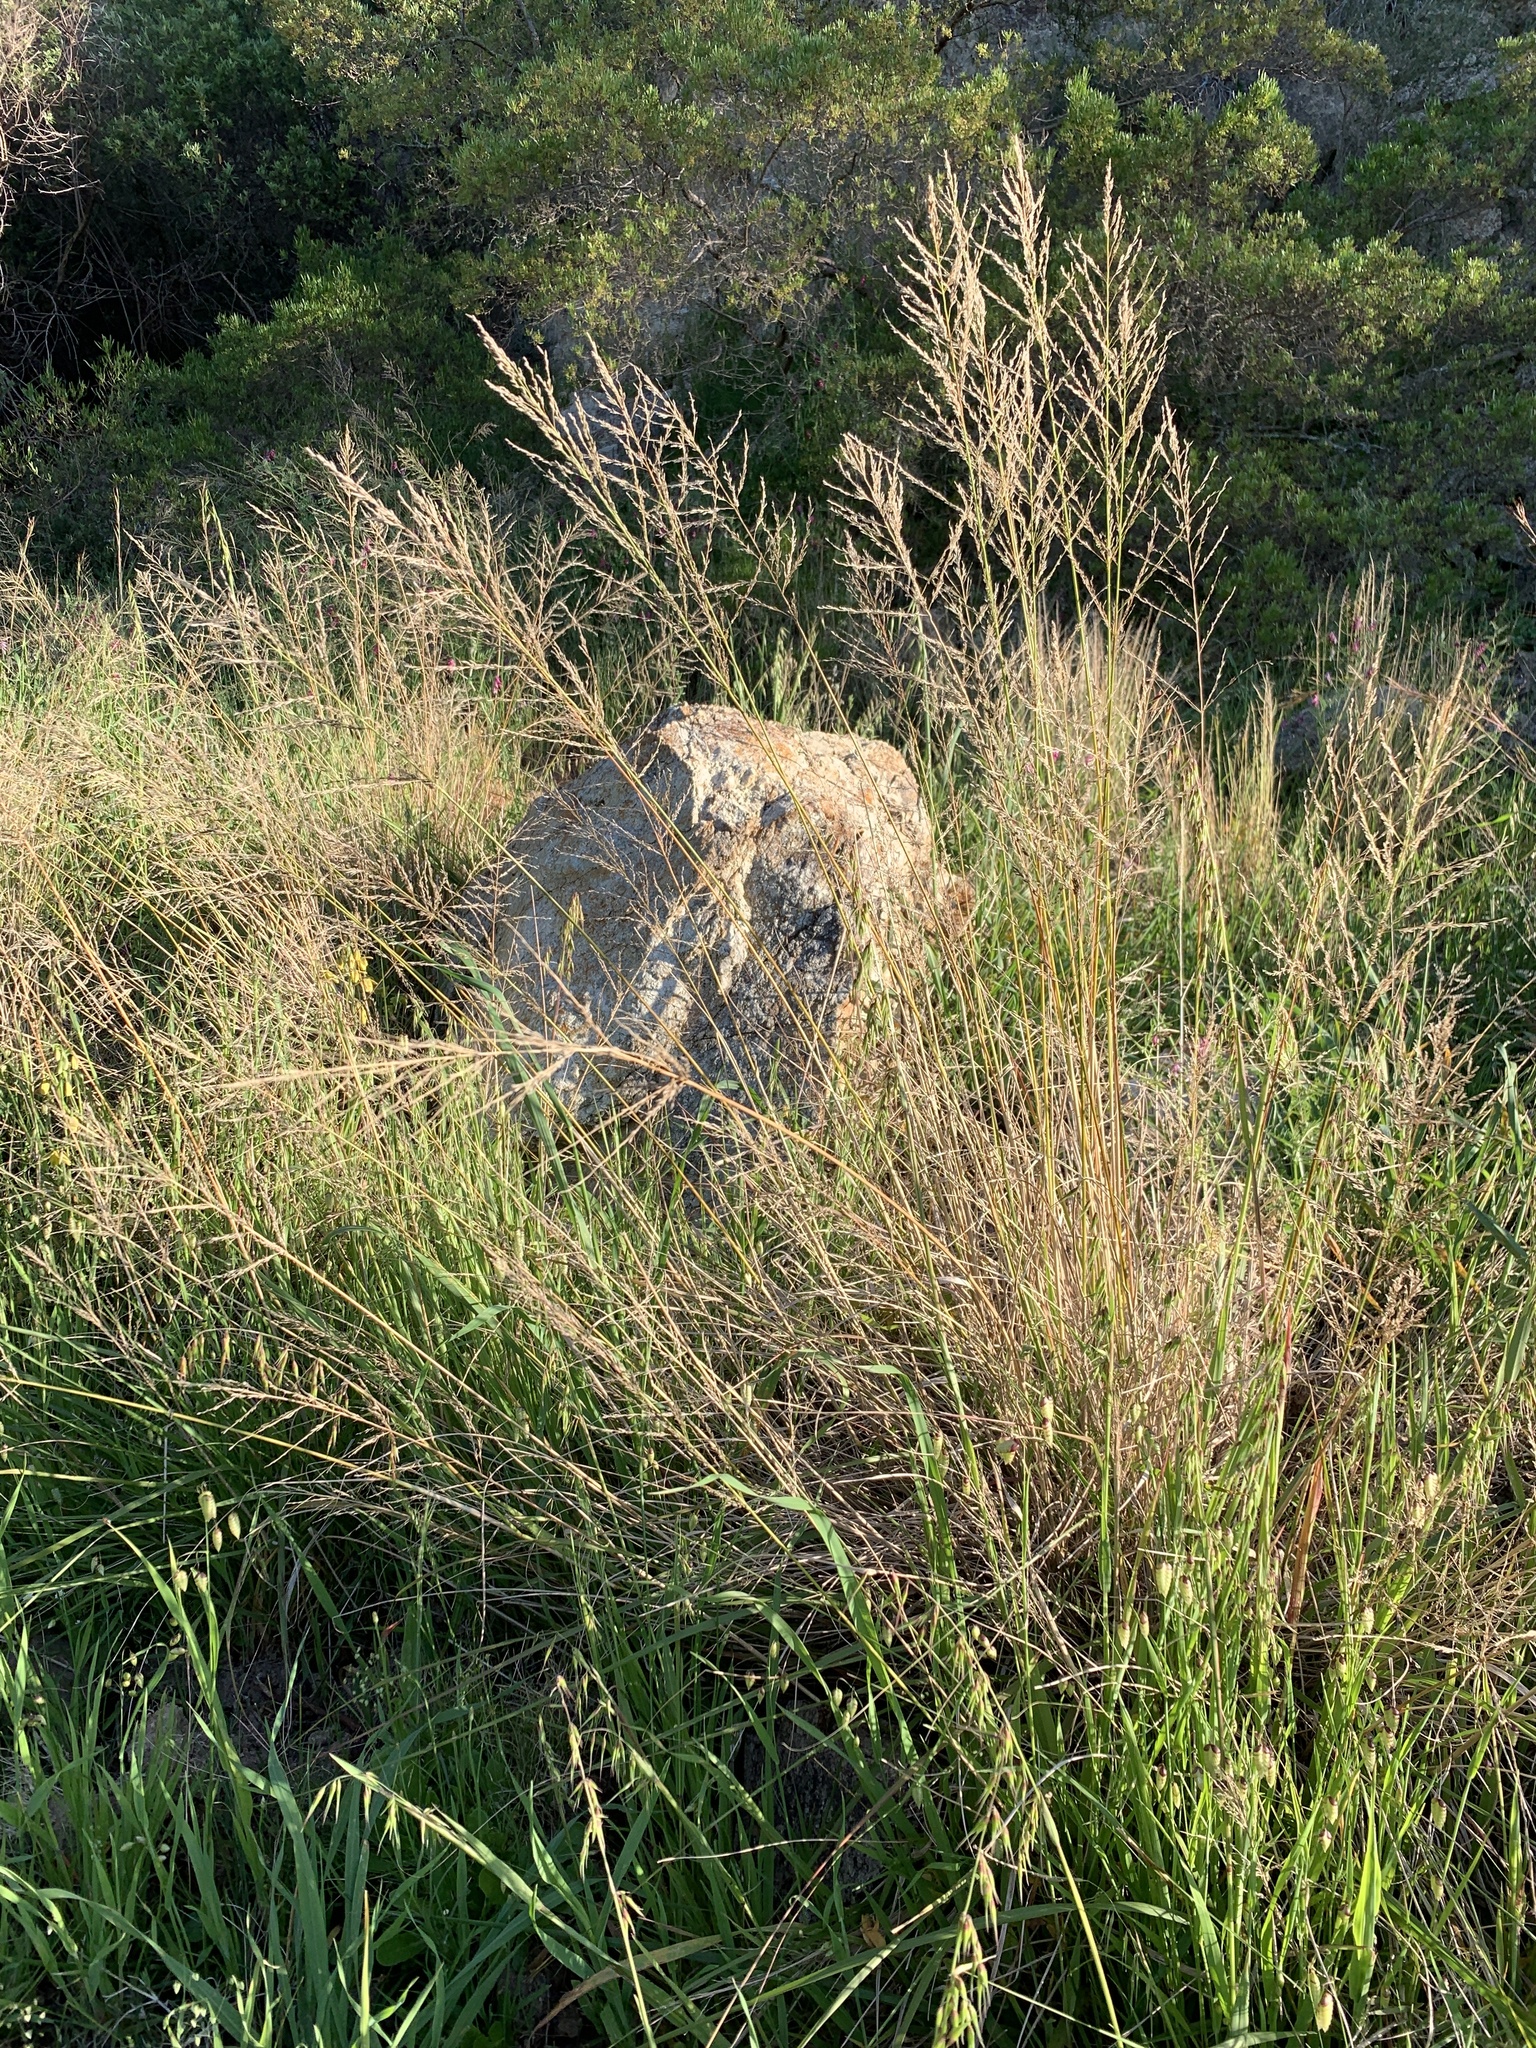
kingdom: Plantae
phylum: Tracheophyta
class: Liliopsida
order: Poales
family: Poaceae
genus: Eragrostis
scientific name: Eragrostis curvula
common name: African love-grass
